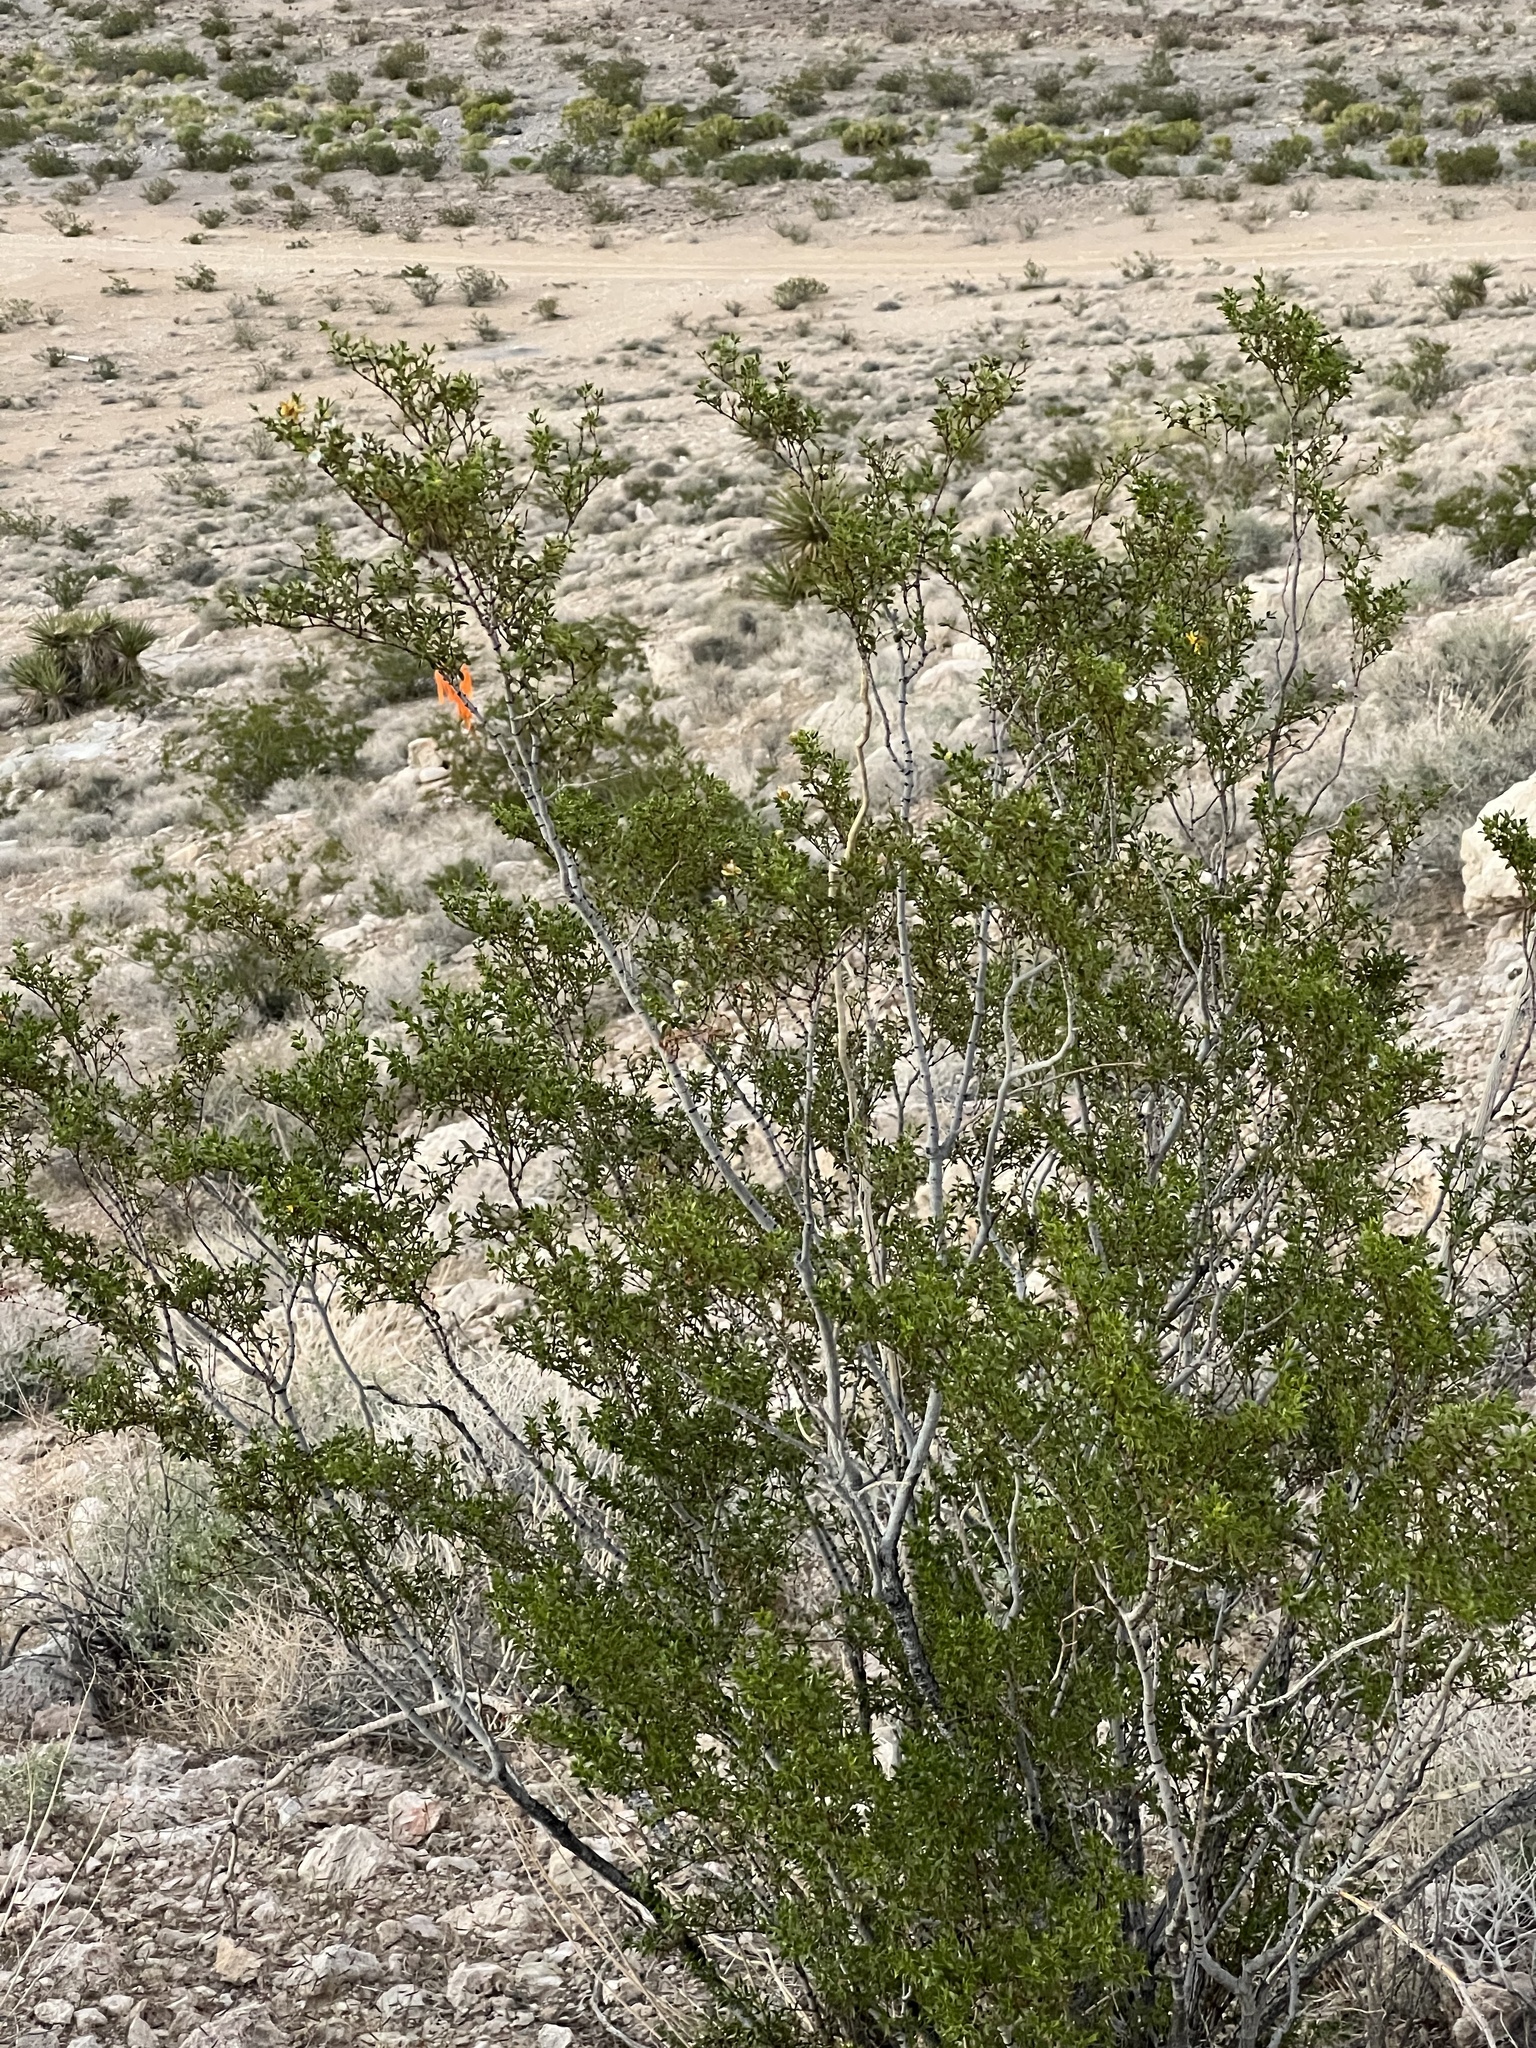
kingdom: Plantae
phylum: Tracheophyta
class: Magnoliopsida
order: Zygophyllales
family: Zygophyllaceae
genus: Larrea
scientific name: Larrea tridentata
